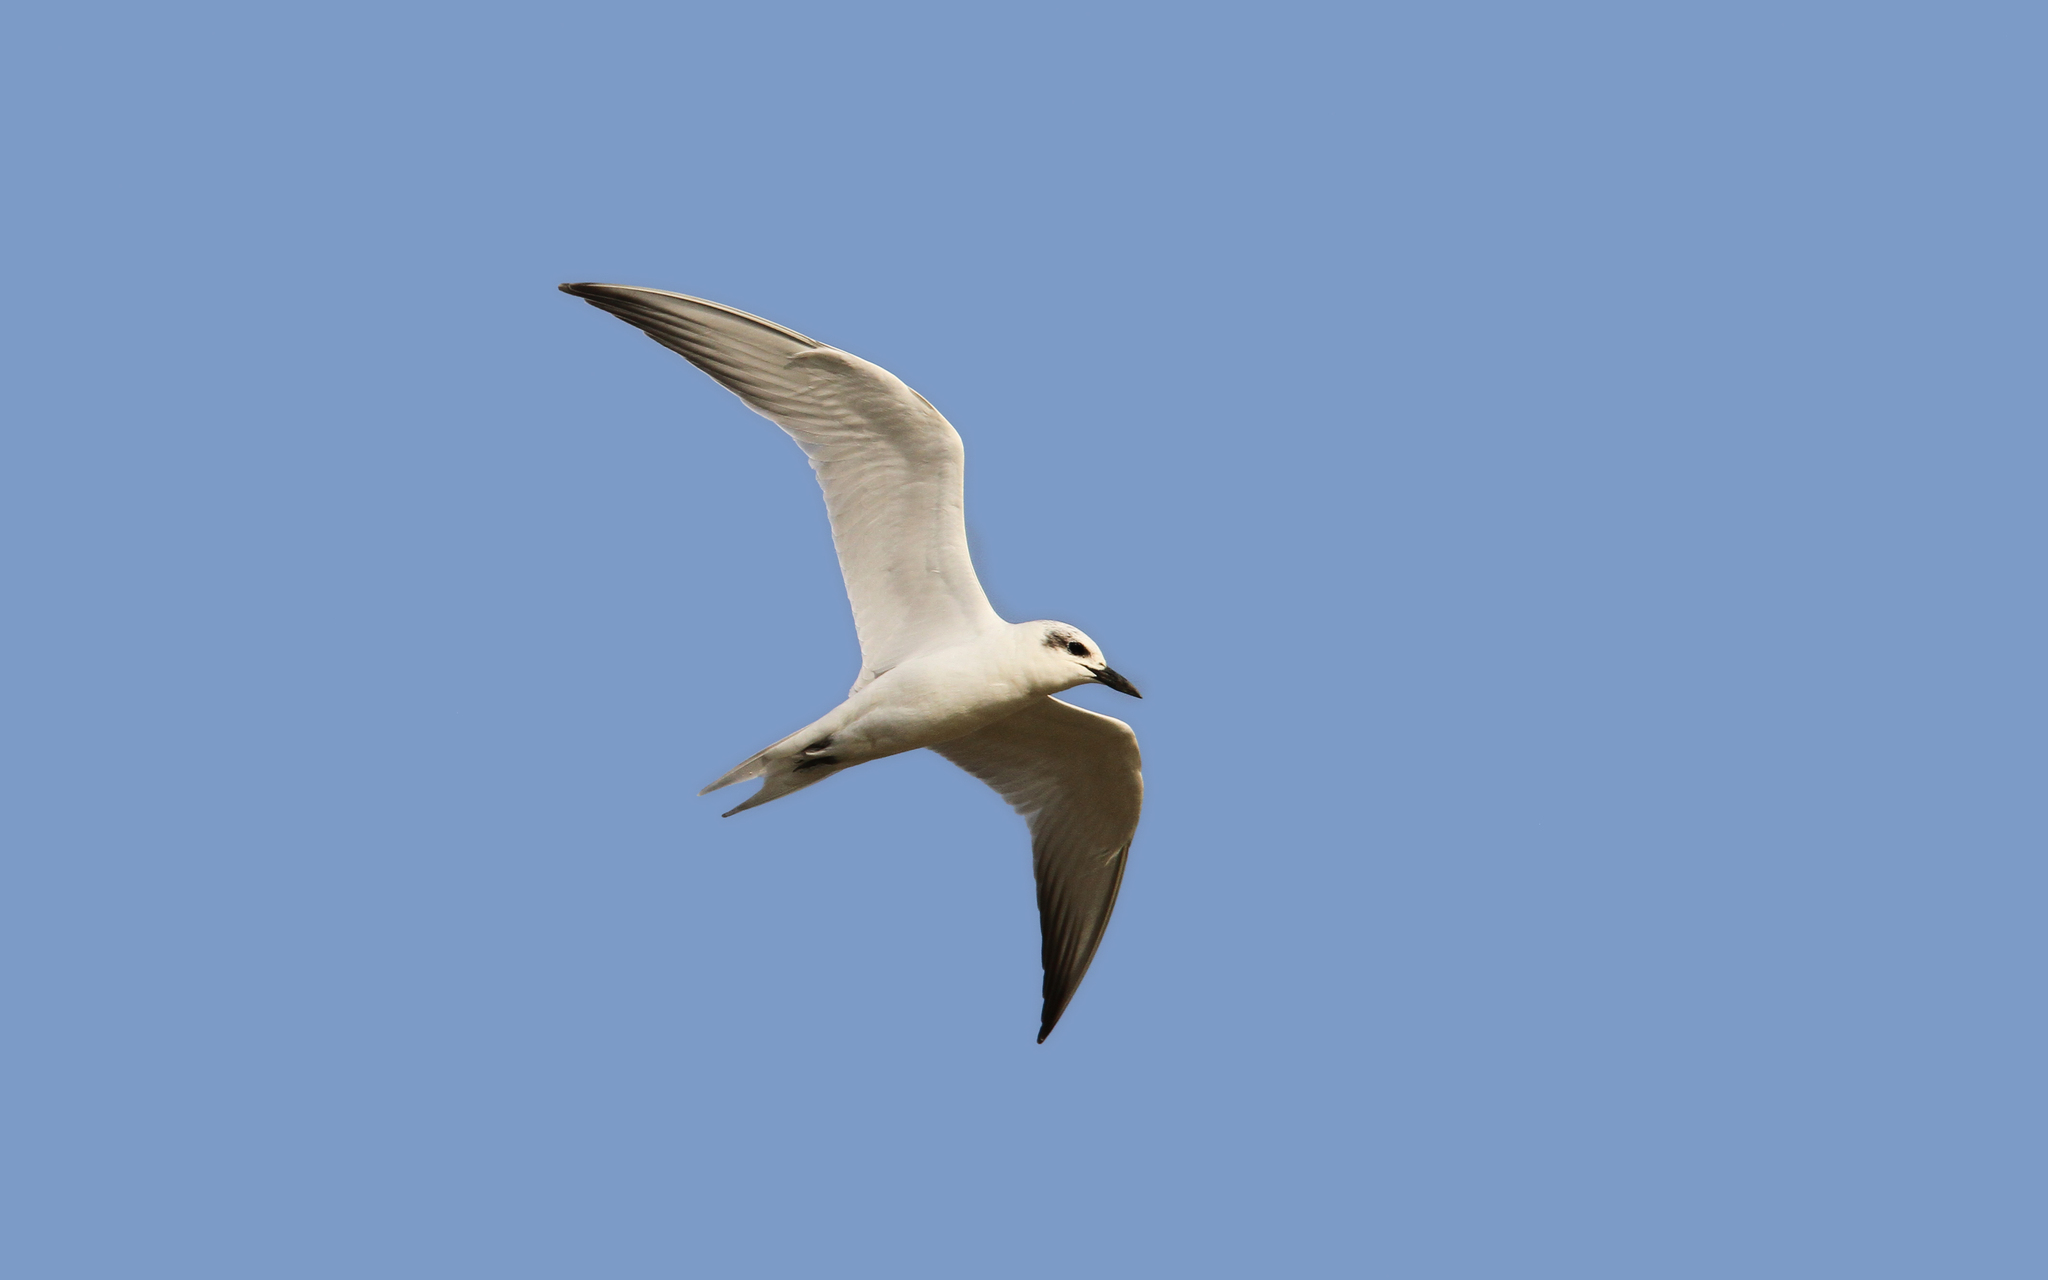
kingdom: Animalia
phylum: Chordata
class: Aves
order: Charadriiformes
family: Laridae
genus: Gelochelidon
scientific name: Gelochelidon nilotica
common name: Gull-billed tern
